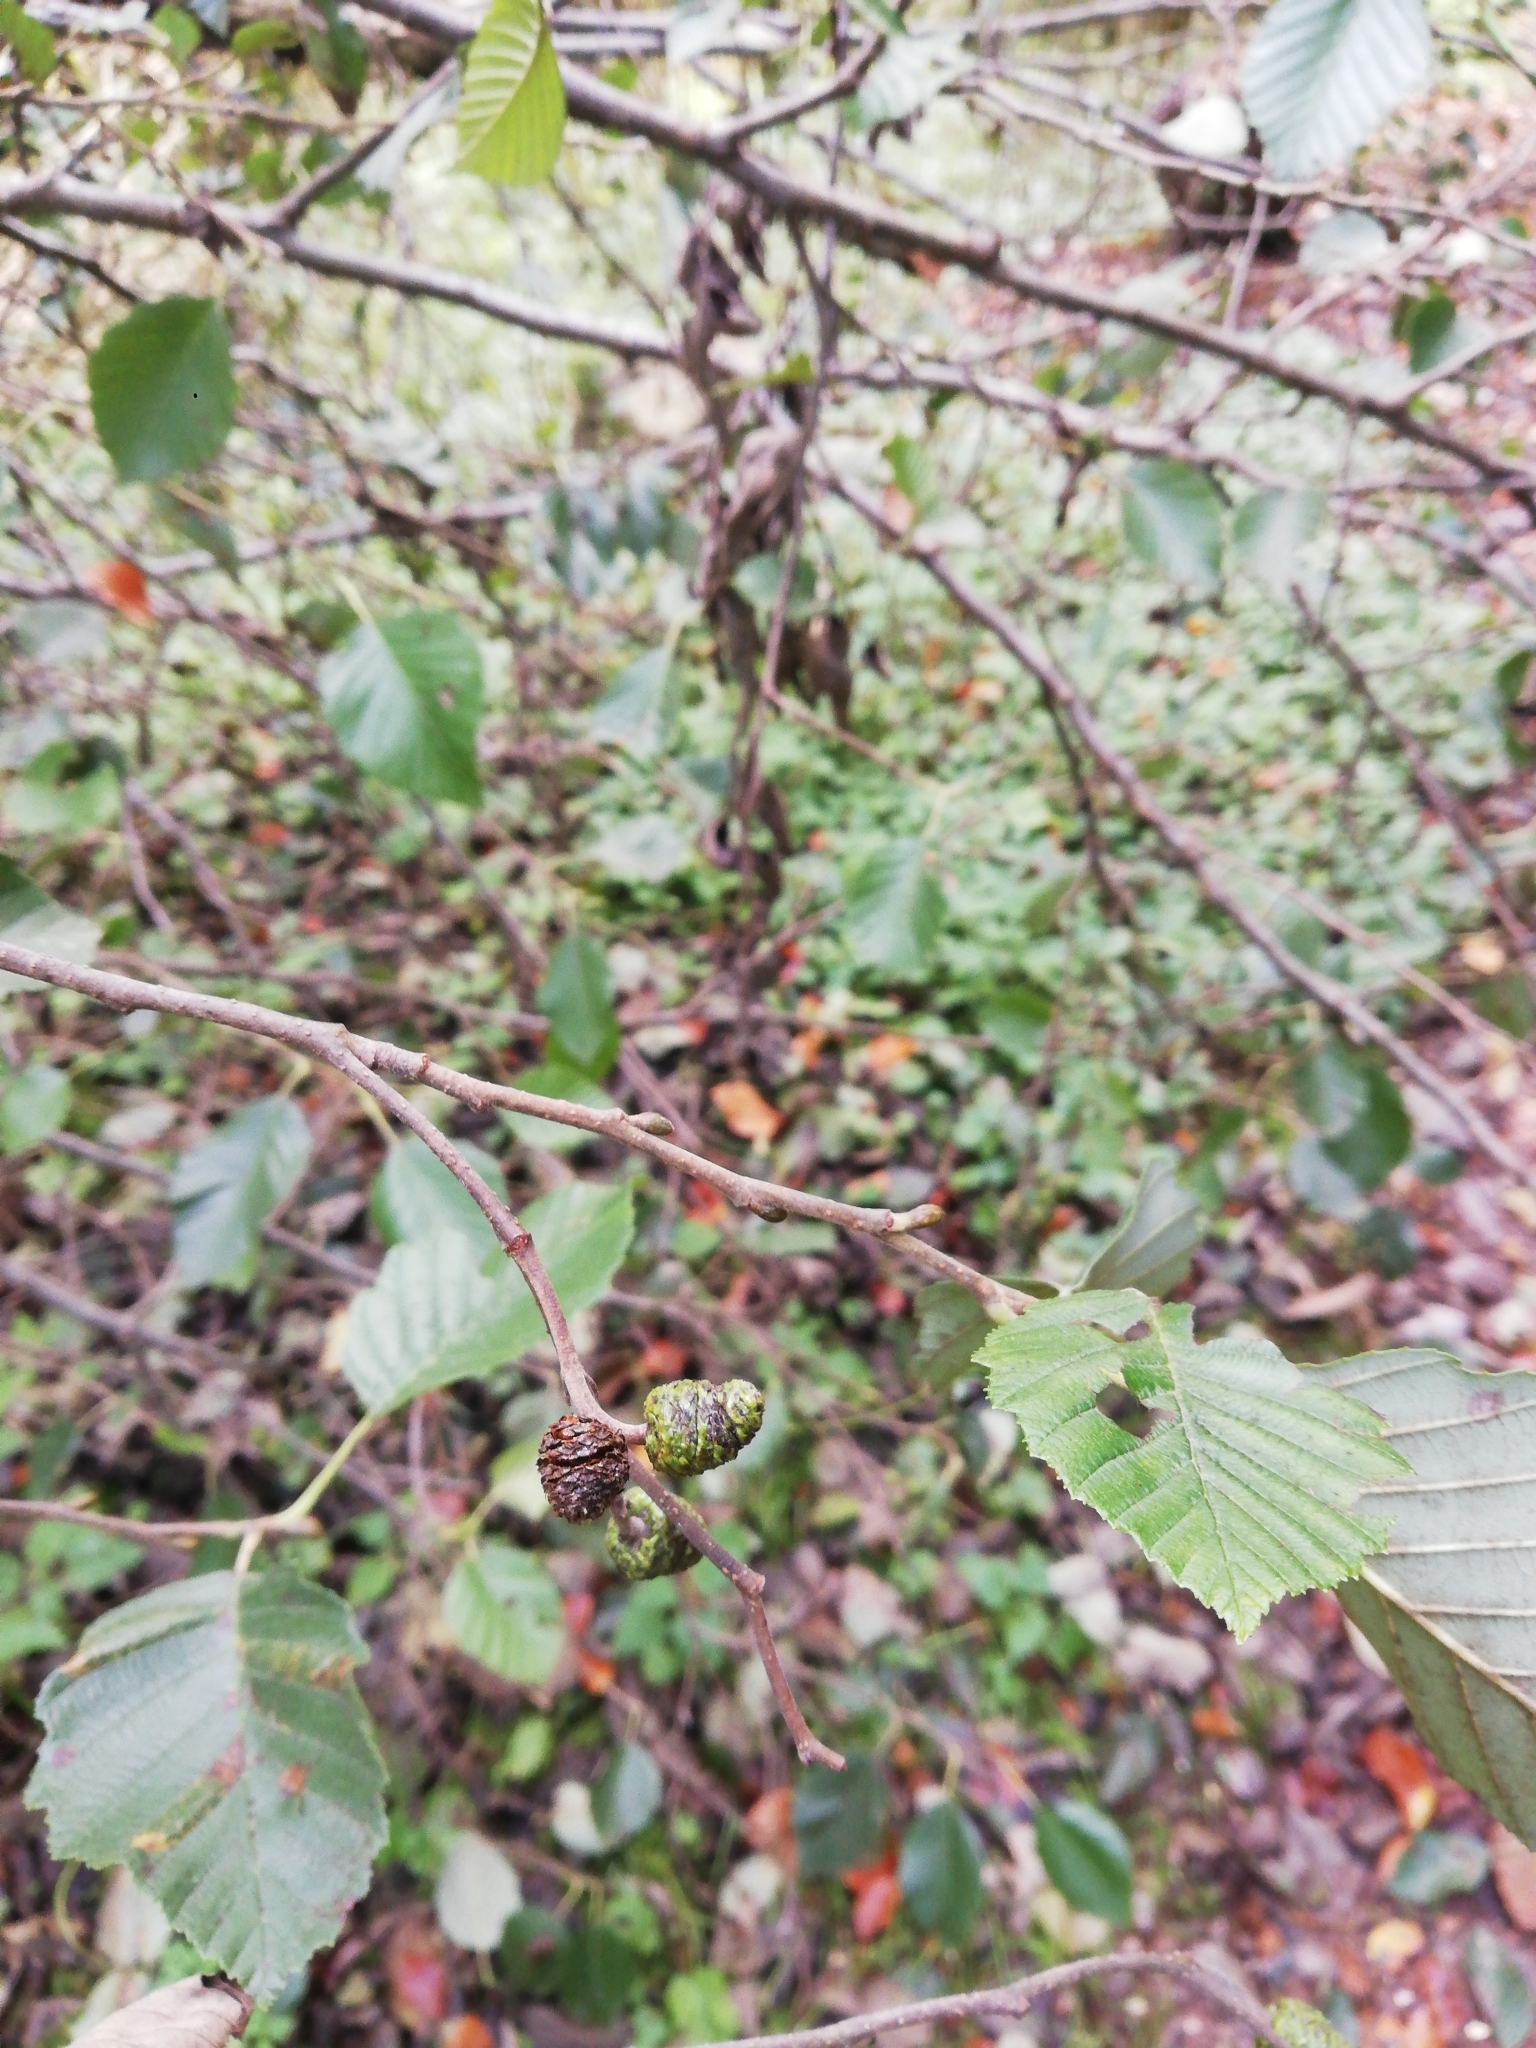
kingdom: Plantae
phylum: Tracheophyta
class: Magnoliopsida
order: Fagales
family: Betulaceae
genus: Alnus
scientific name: Alnus incana
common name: Grey alder
